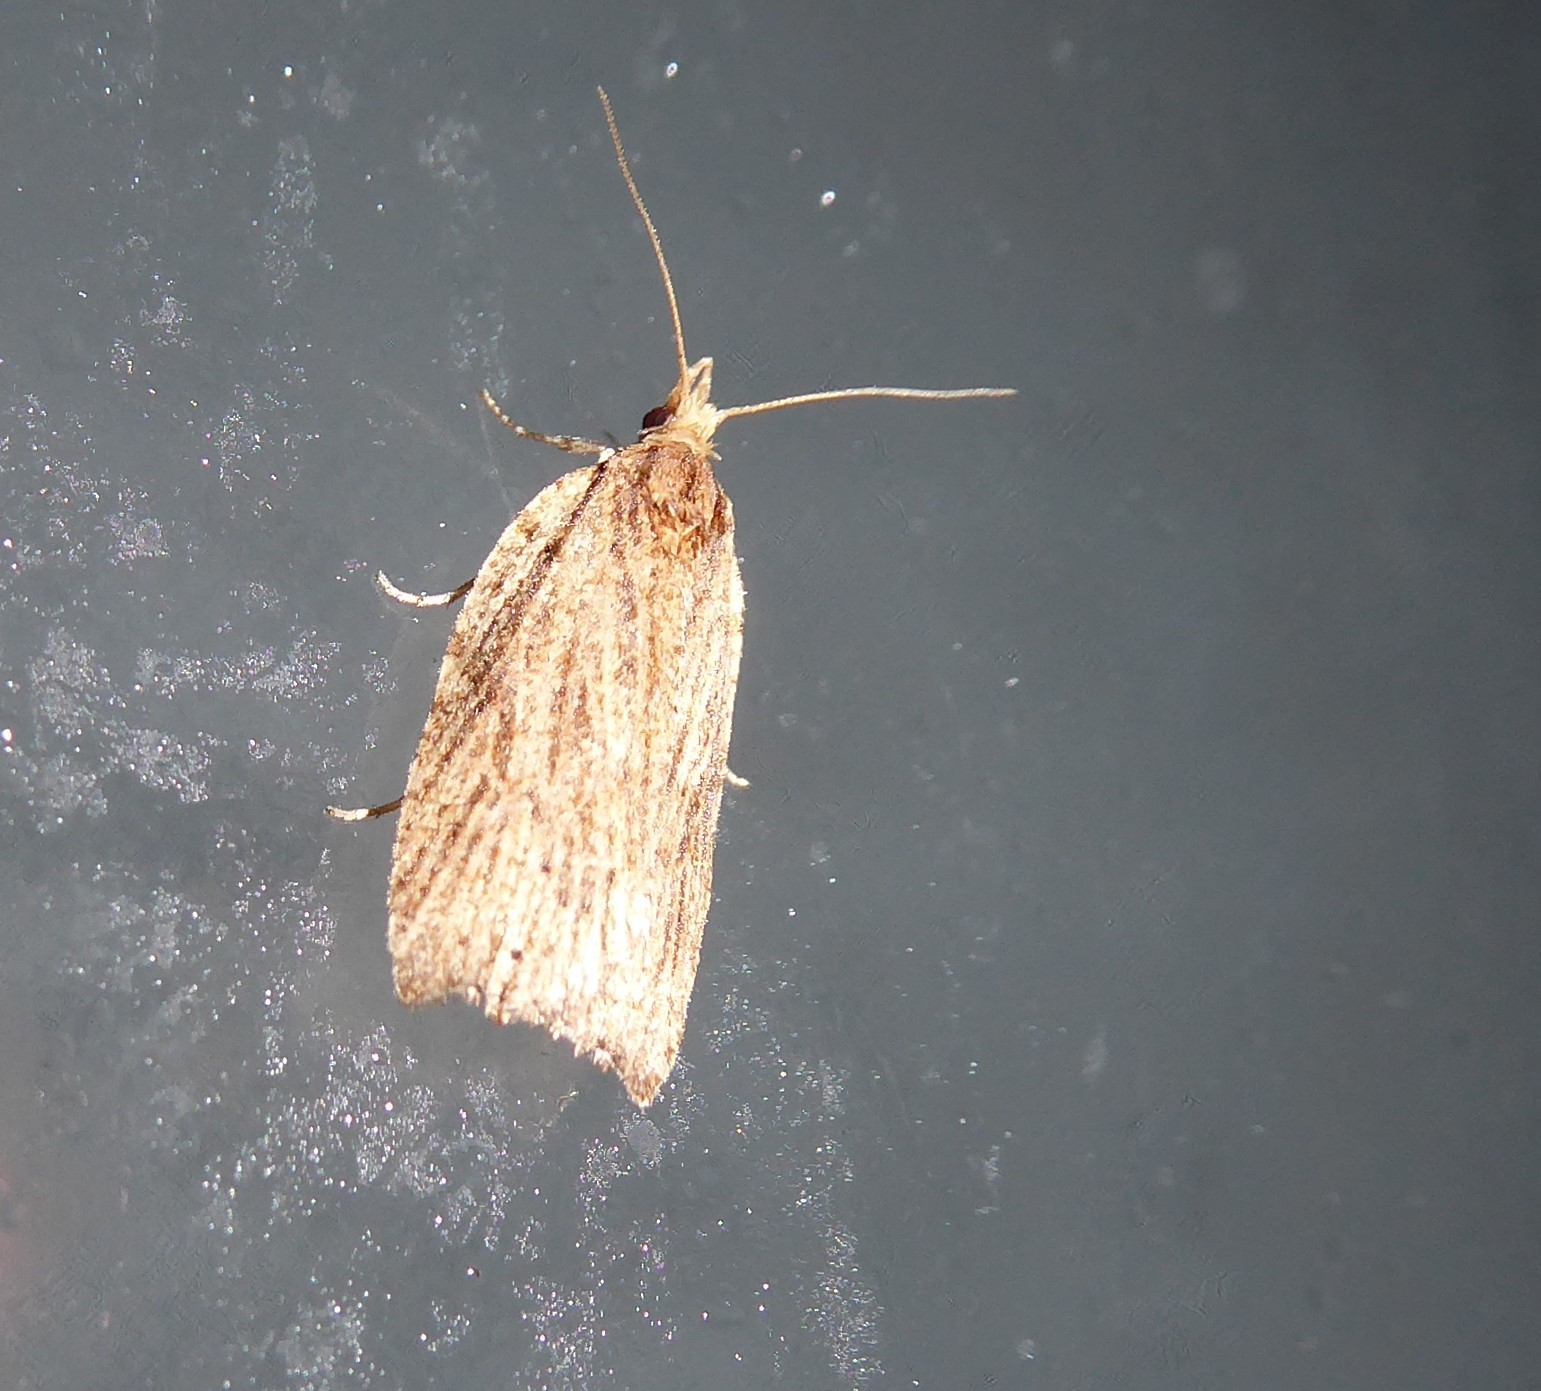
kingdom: Animalia
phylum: Arthropoda
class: Insecta
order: Lepidoptera
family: Tortricidae
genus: Planotortrix
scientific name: Planotortrix notophaea
